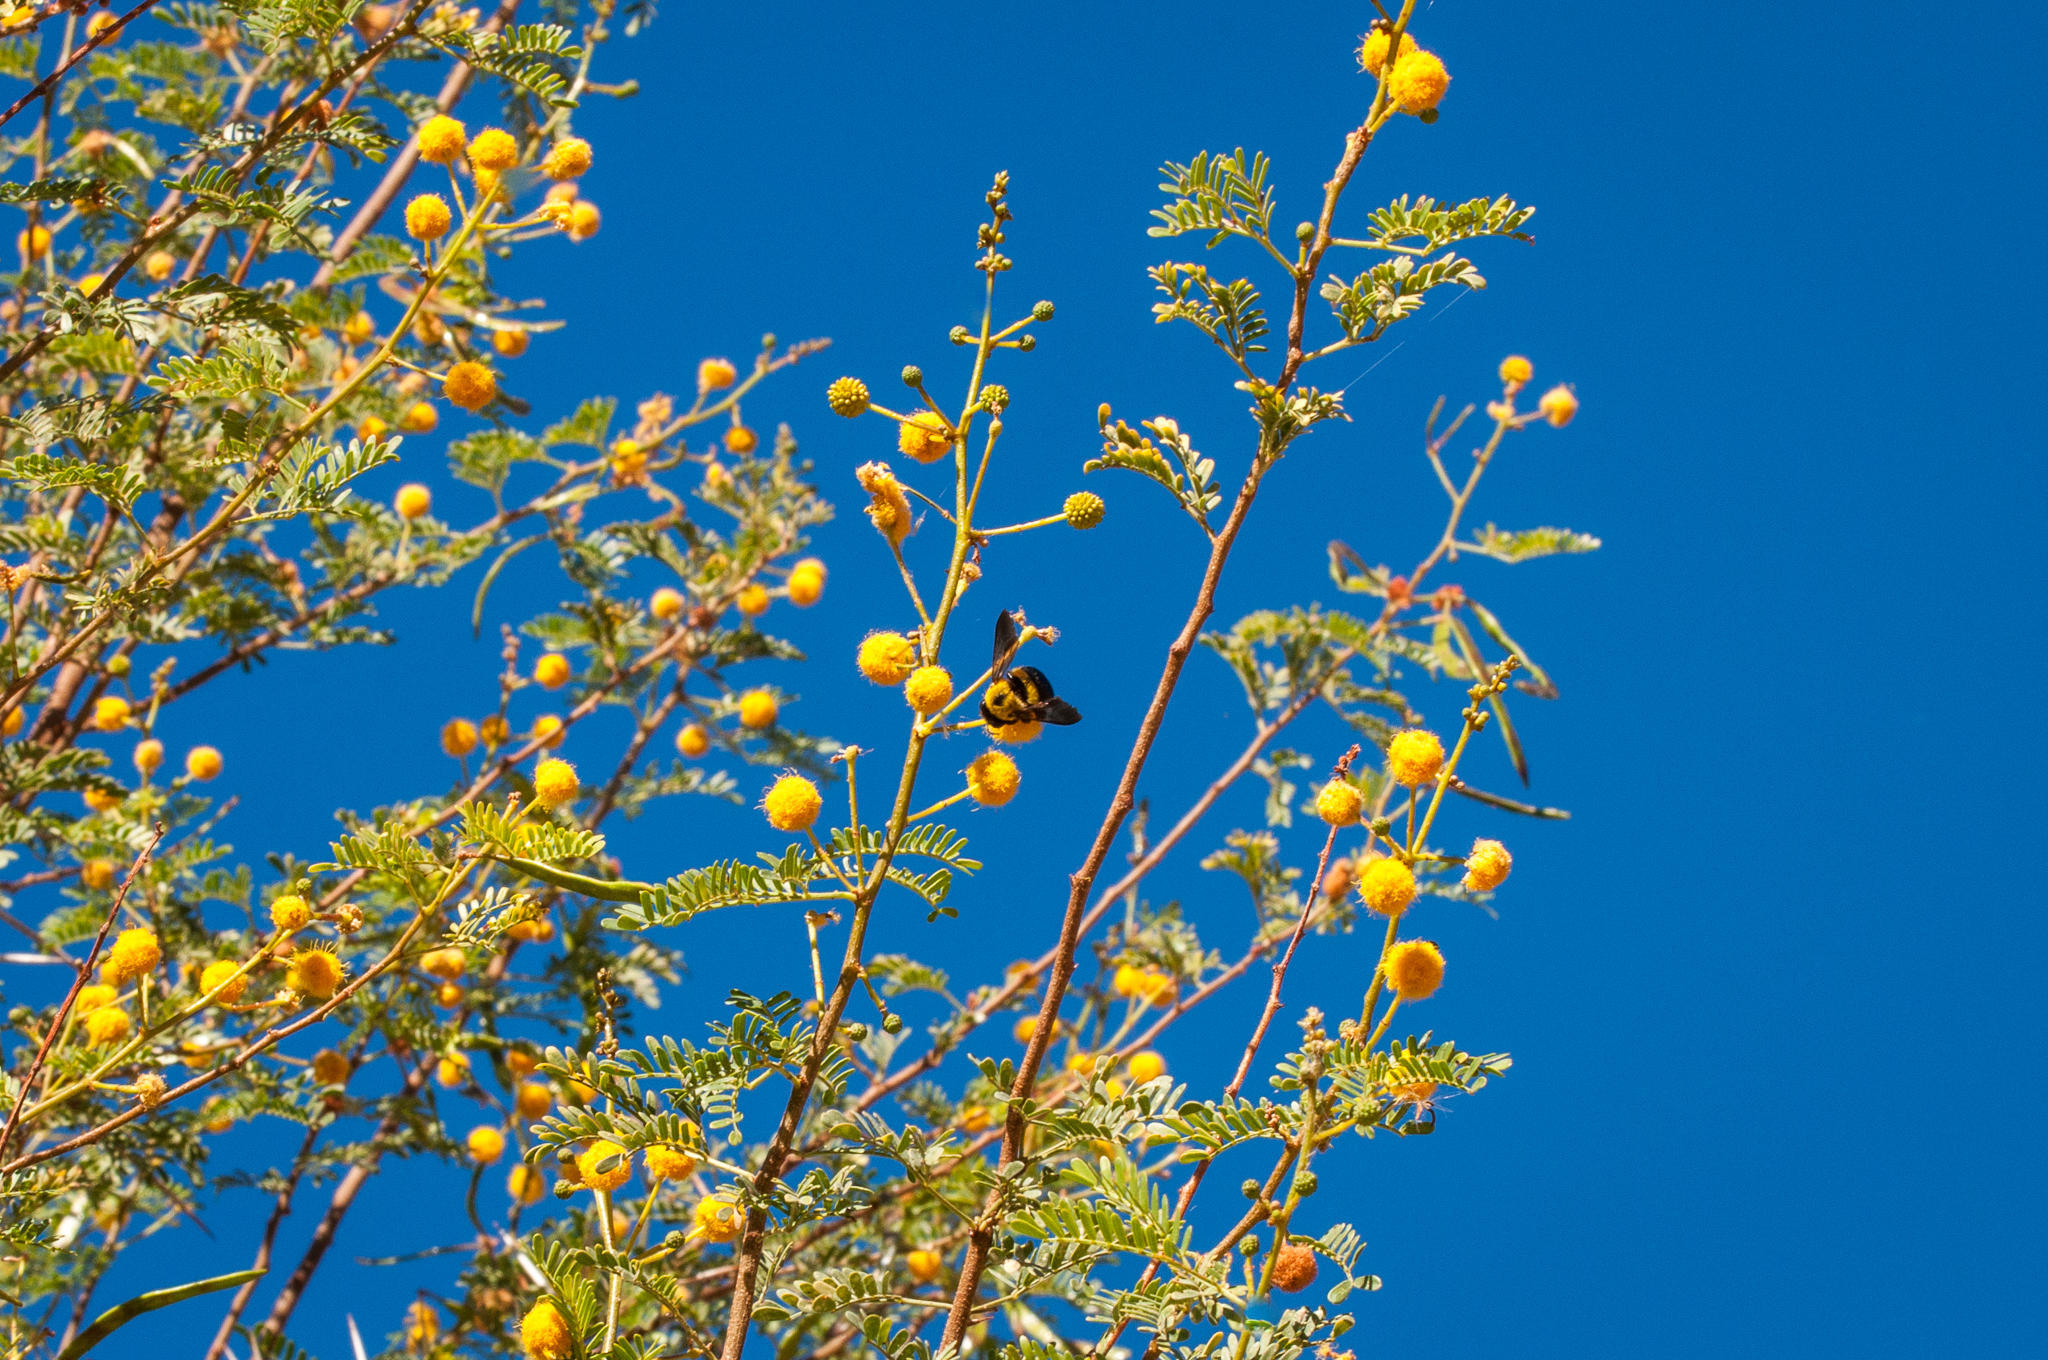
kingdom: Animalia
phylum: Arthropoda
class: Insecta
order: Hymenoptera
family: Apidae
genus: Xylocopa
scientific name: Xylocopa watmoughi
